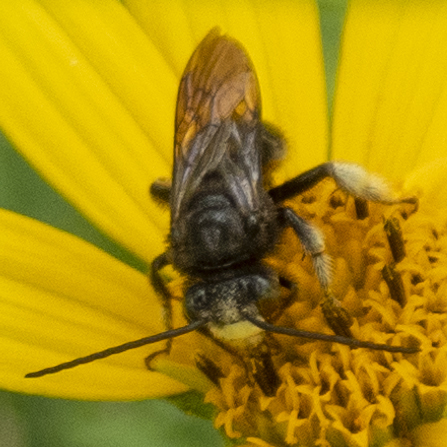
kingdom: Animalia
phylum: Arthropoda
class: Insecta
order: Hymenoptera
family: Apidae
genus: Melissodes
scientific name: Melissodes bimaculatus
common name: Two-spotted long-horned bee
